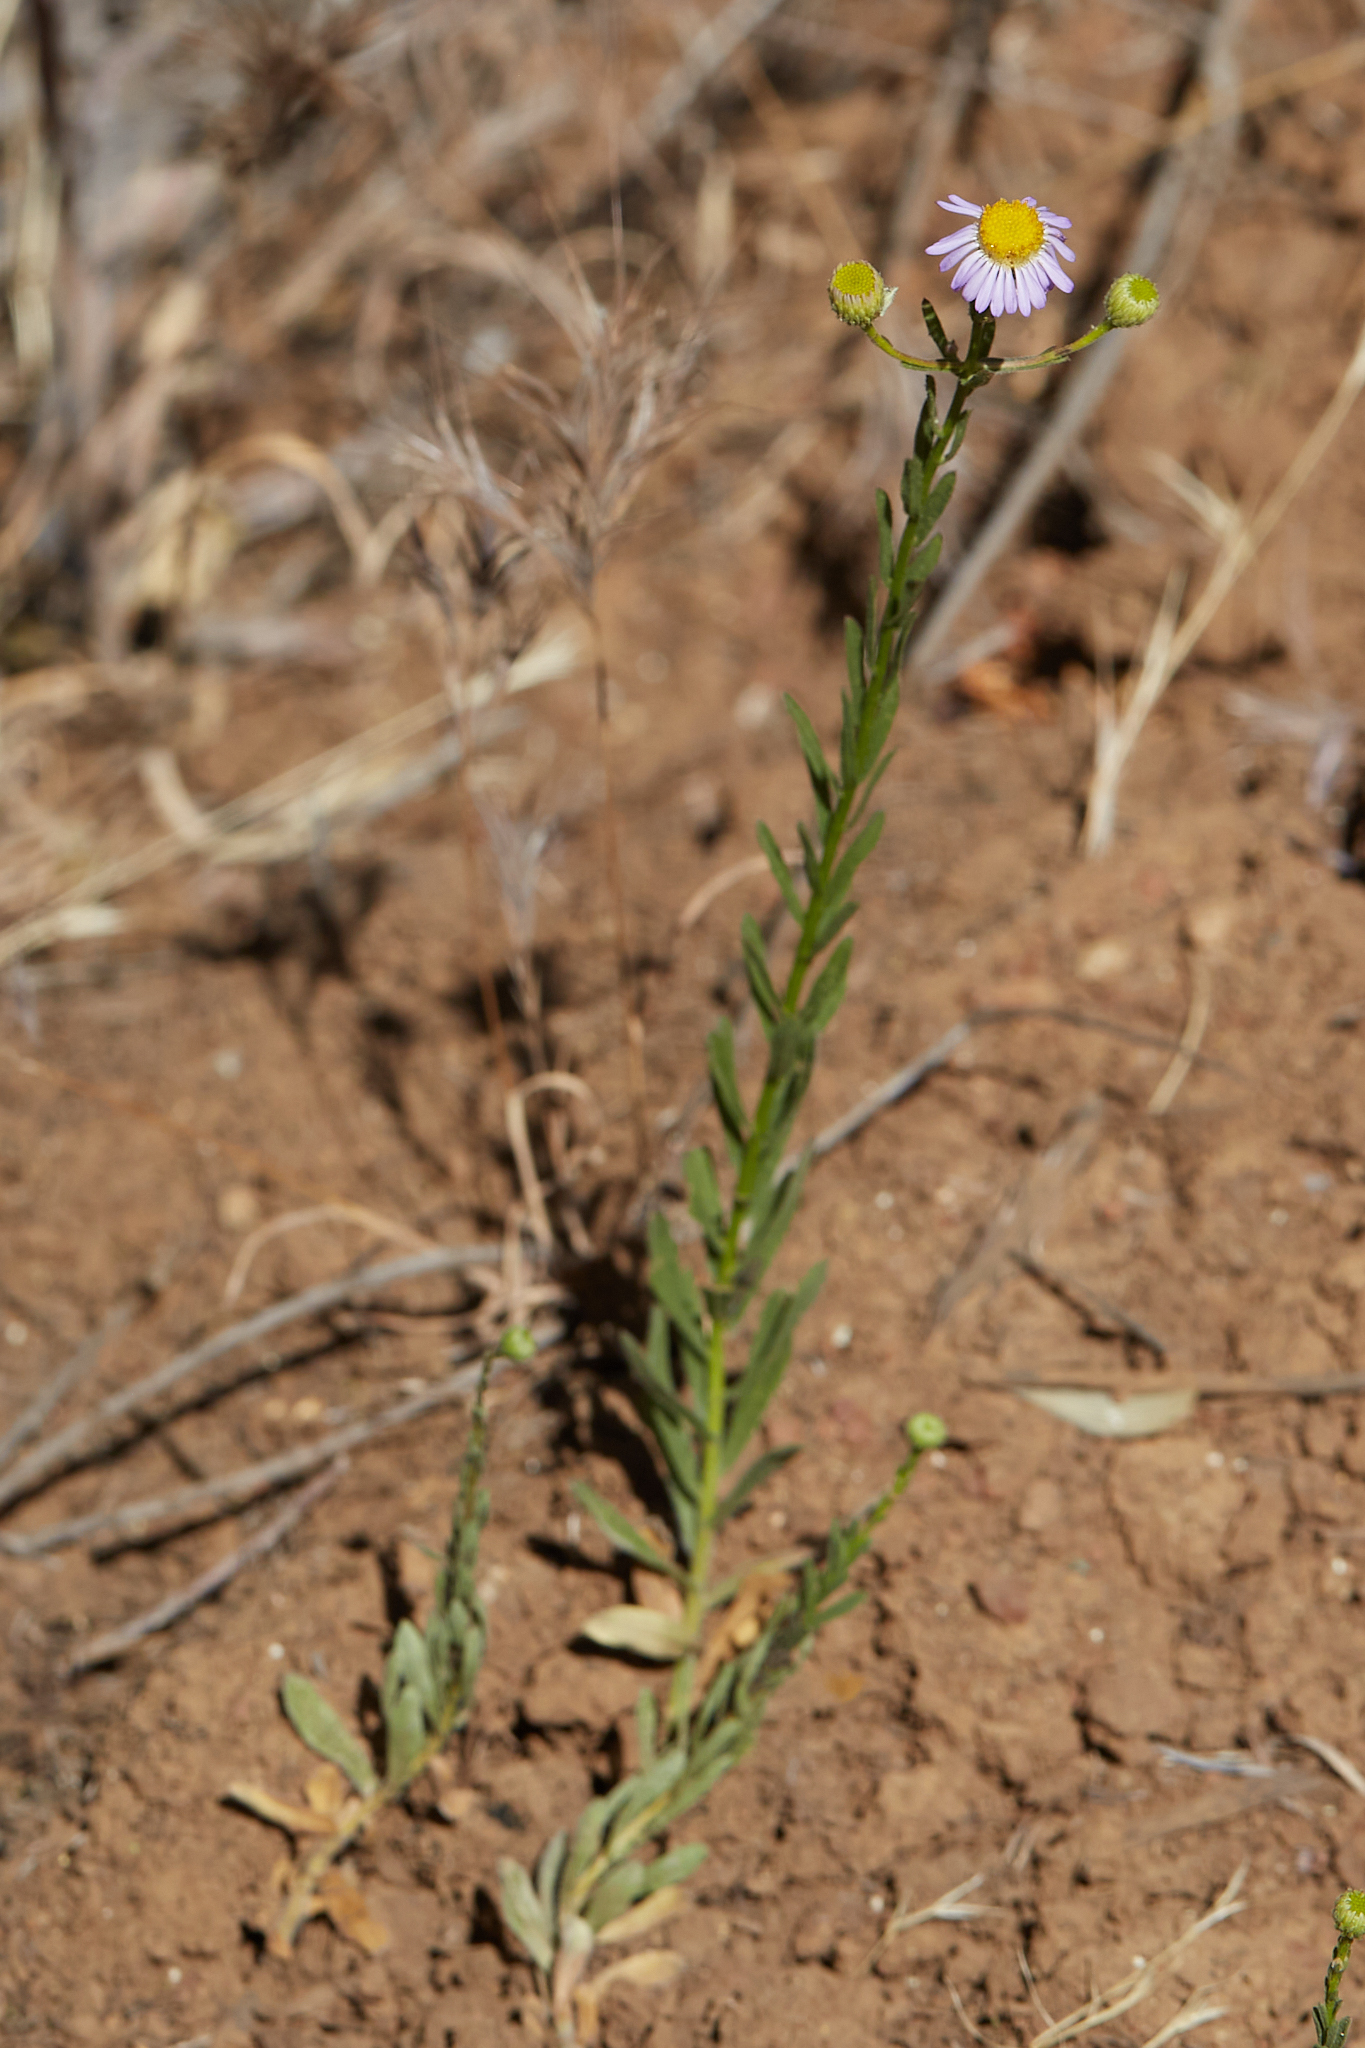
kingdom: Plantae
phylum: Tracheophyta
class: Magnoliopsida
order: Asterales
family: Asteraceae
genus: Erigeron
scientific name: Erigeron foliosus
